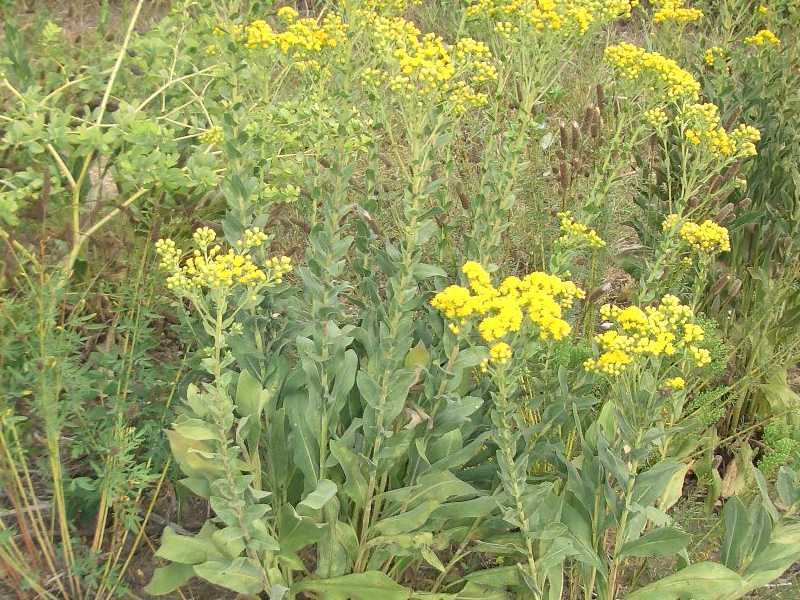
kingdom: Plantae
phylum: Tracheophyta
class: Magnoliopsida
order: Asterales
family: Asteraceae
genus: Solidago
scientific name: Solidago rigida
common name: Rigid goldenrod
